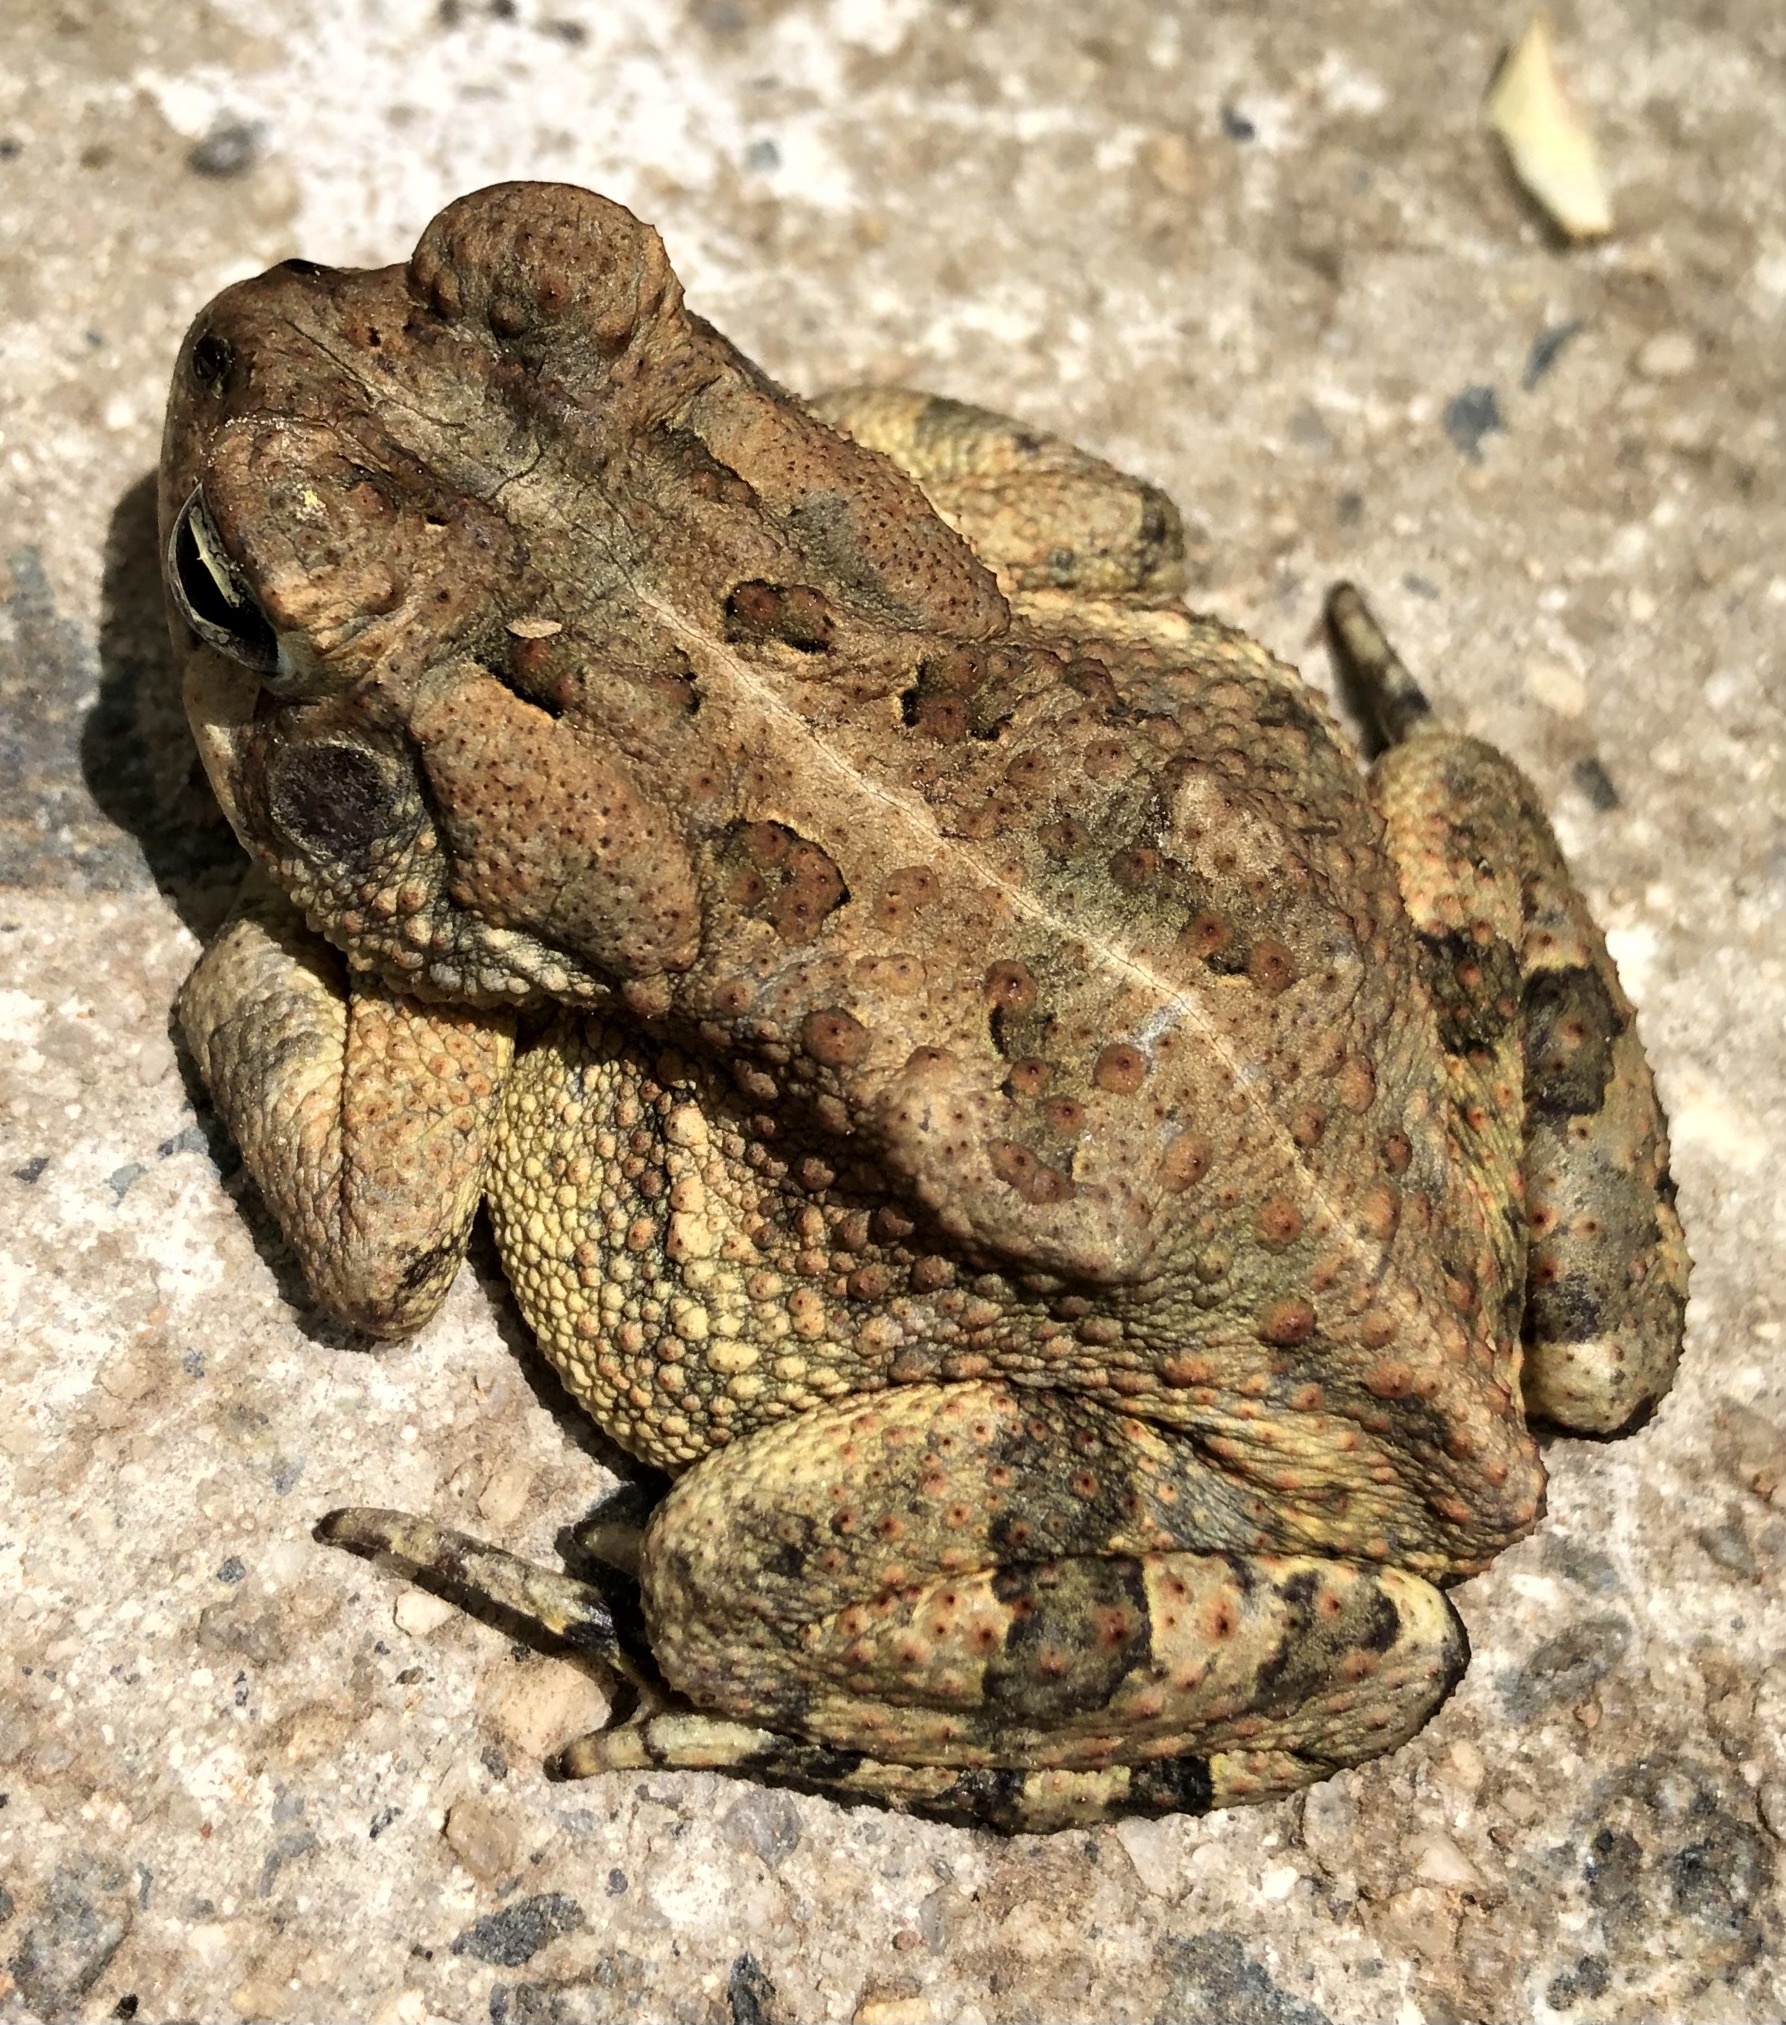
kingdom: Animalia
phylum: Chordata
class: Amphibia
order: Anura
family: Bufonidae
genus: Anaxyrus
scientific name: Anaxyrus fowleri
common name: Fowler's toad
